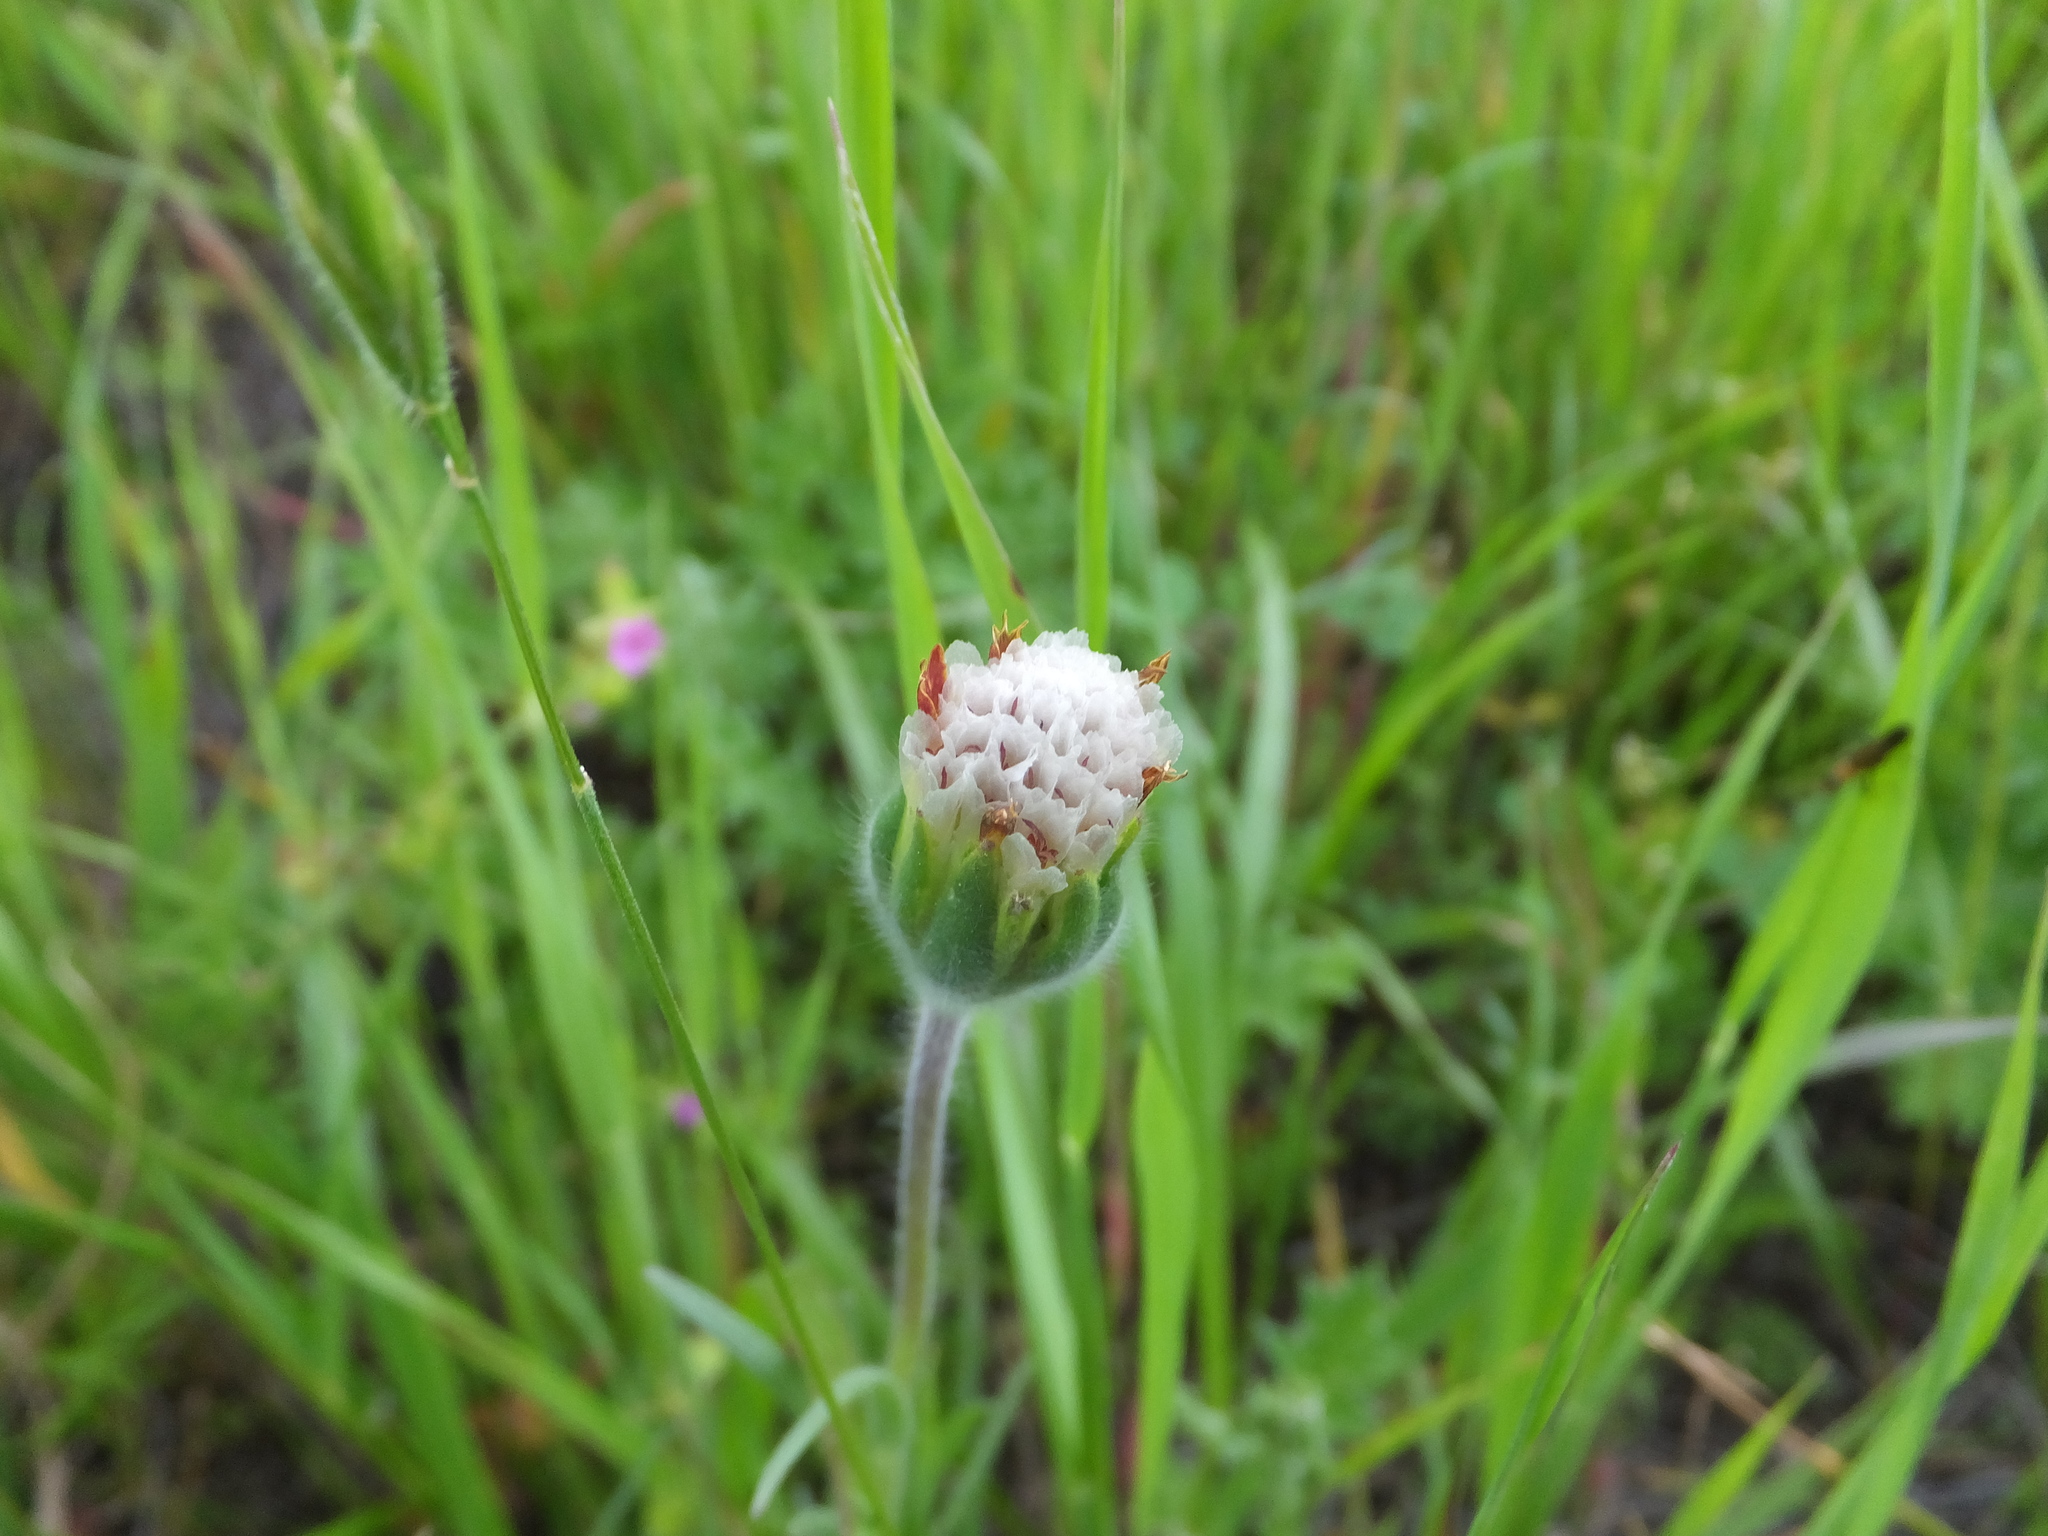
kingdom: Plantae
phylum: Tracheophyta
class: Magnoliopsida
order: Asterales
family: Asteraceae
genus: Achyrachaena
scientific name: Achyrachaena mollis
